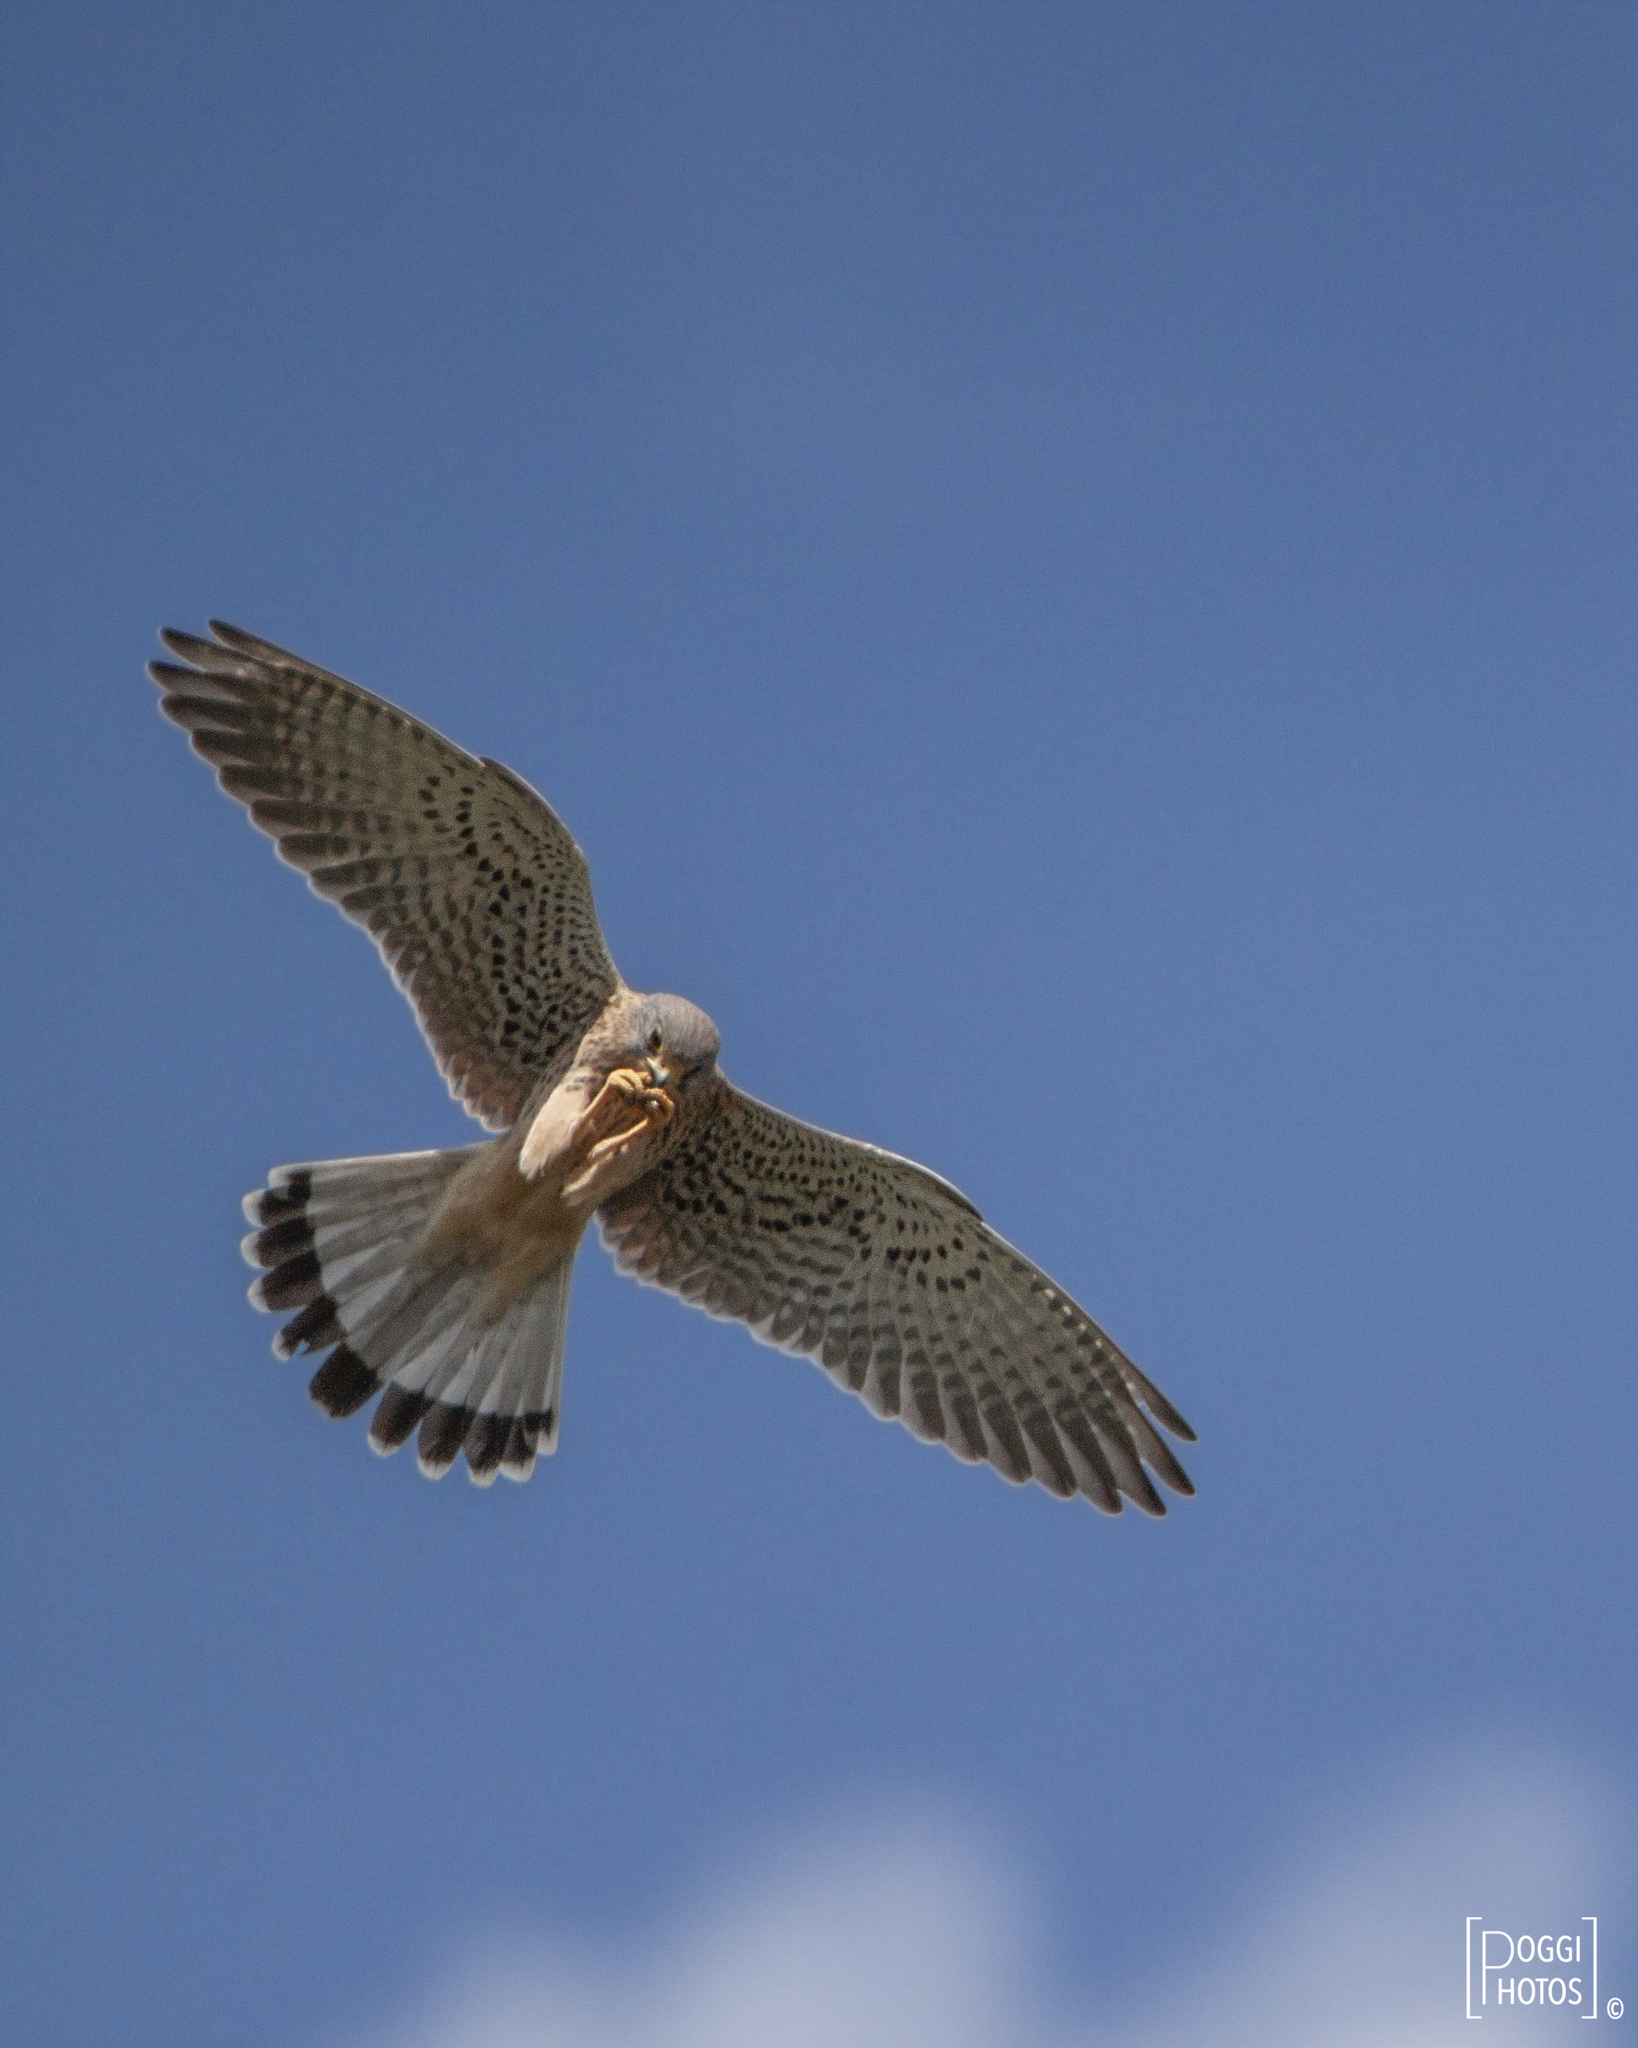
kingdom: Animalia
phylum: Chordata
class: Aves
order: Falconiformes
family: Falconidae
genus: Falco
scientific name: Falco tinnunculus
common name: Common kestrel
